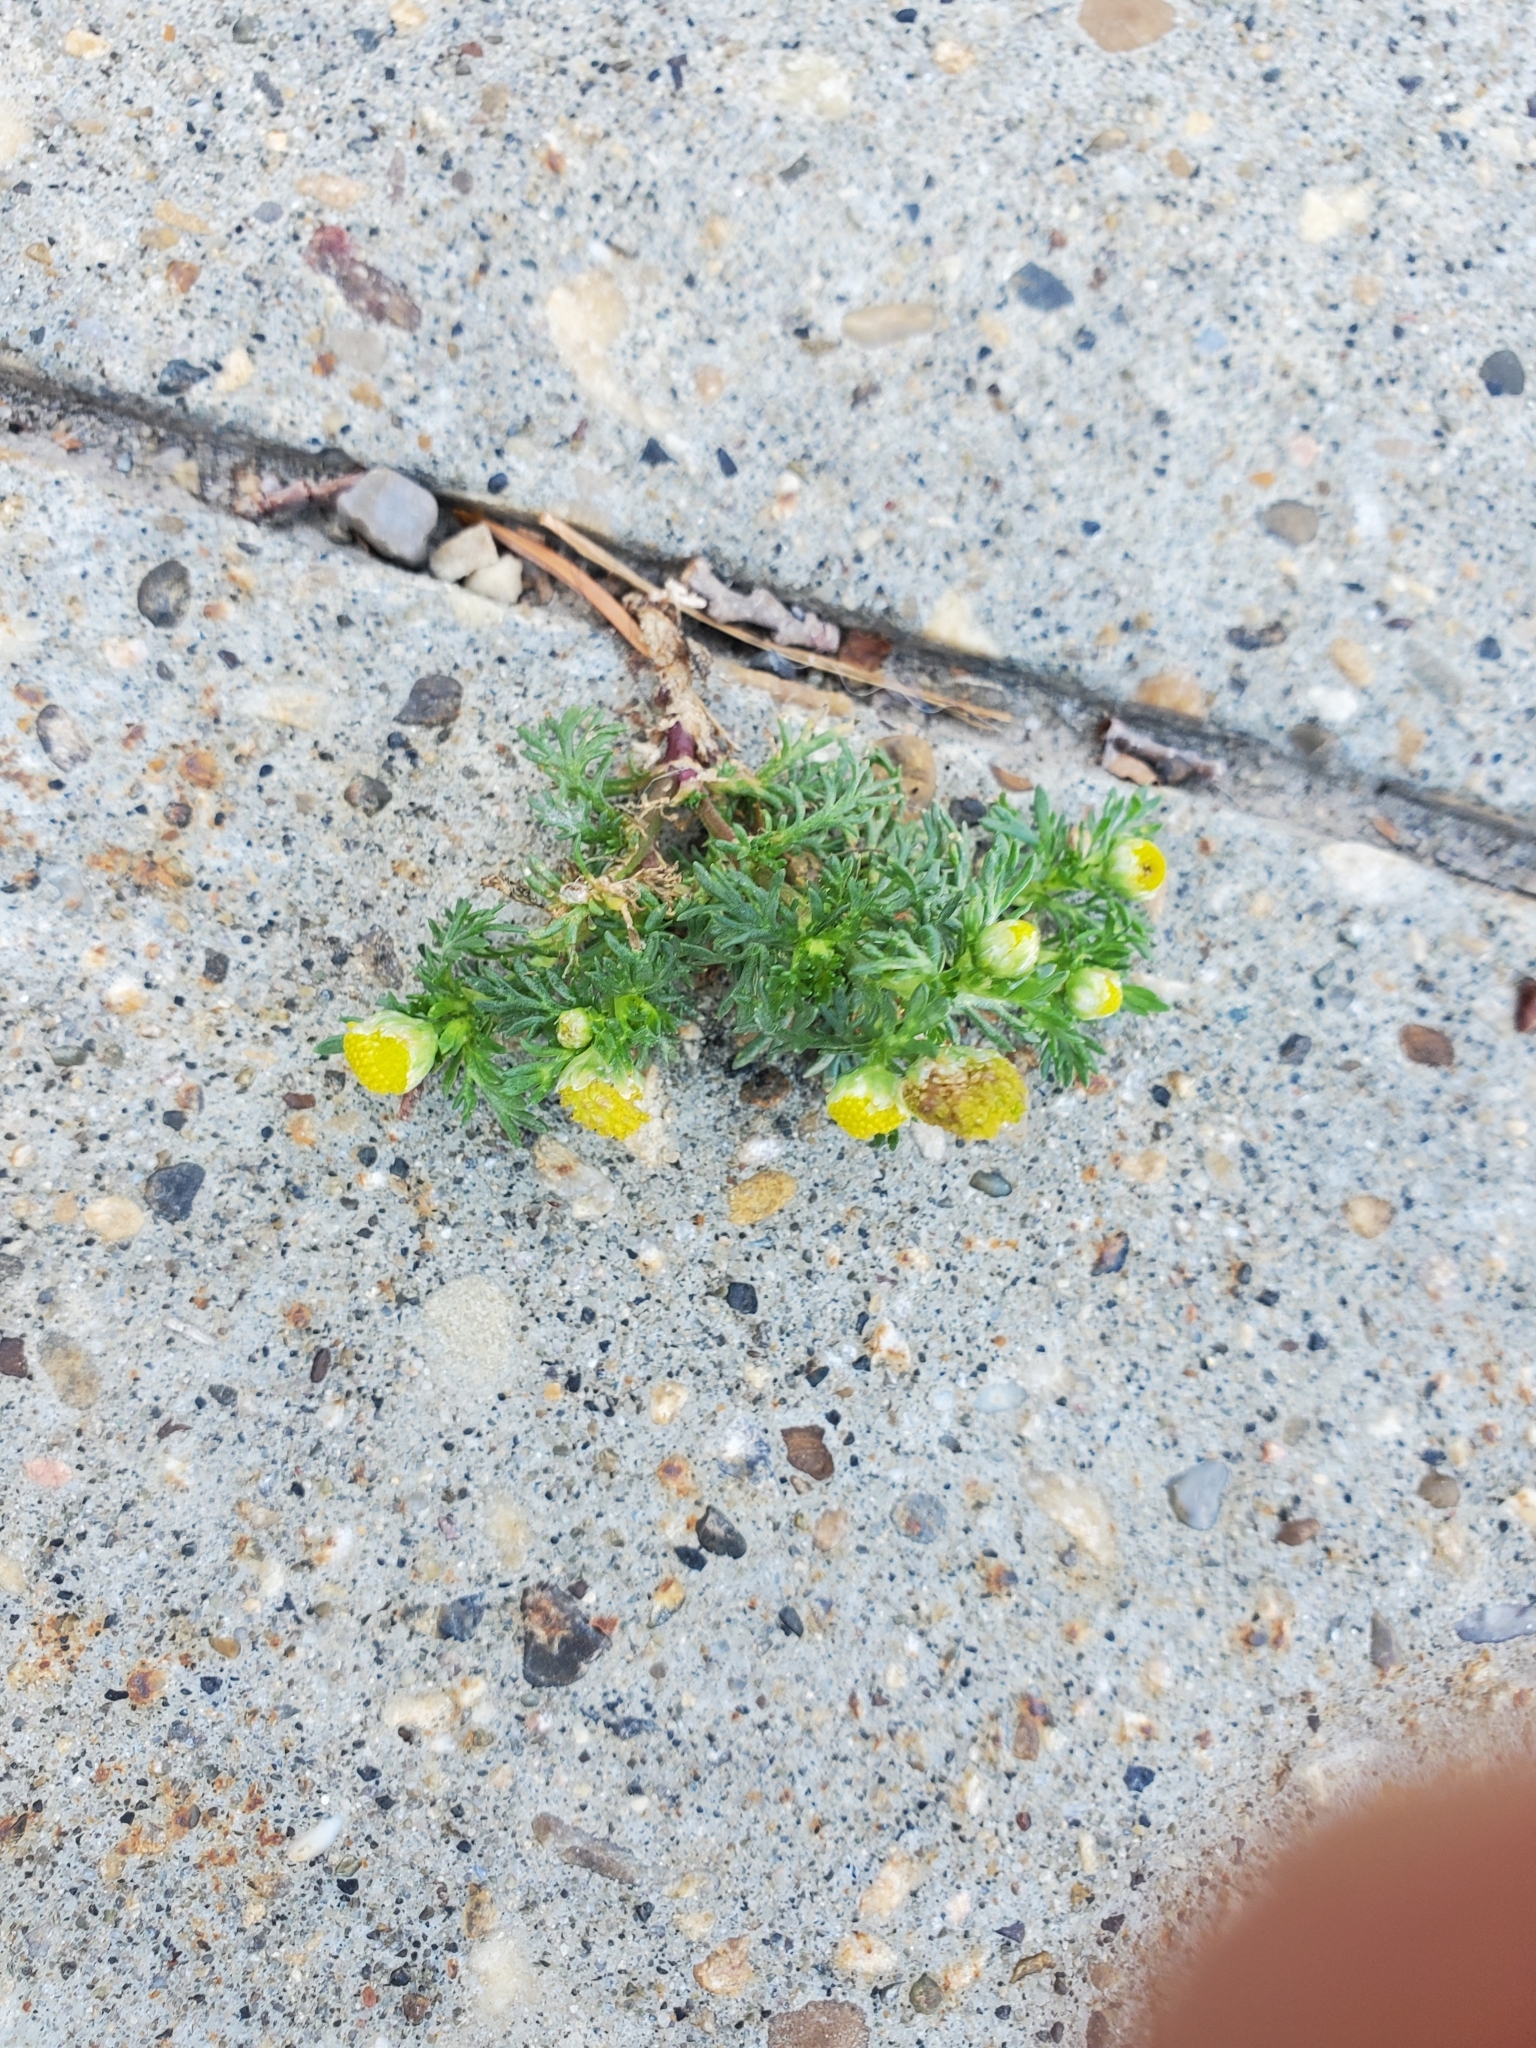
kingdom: Plantae
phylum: Tracheophyta
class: Magnoliopsida
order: Asterales
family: Asteraceae
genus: Matricaria
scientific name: Matricaria discoidea
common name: Disc mayweed
